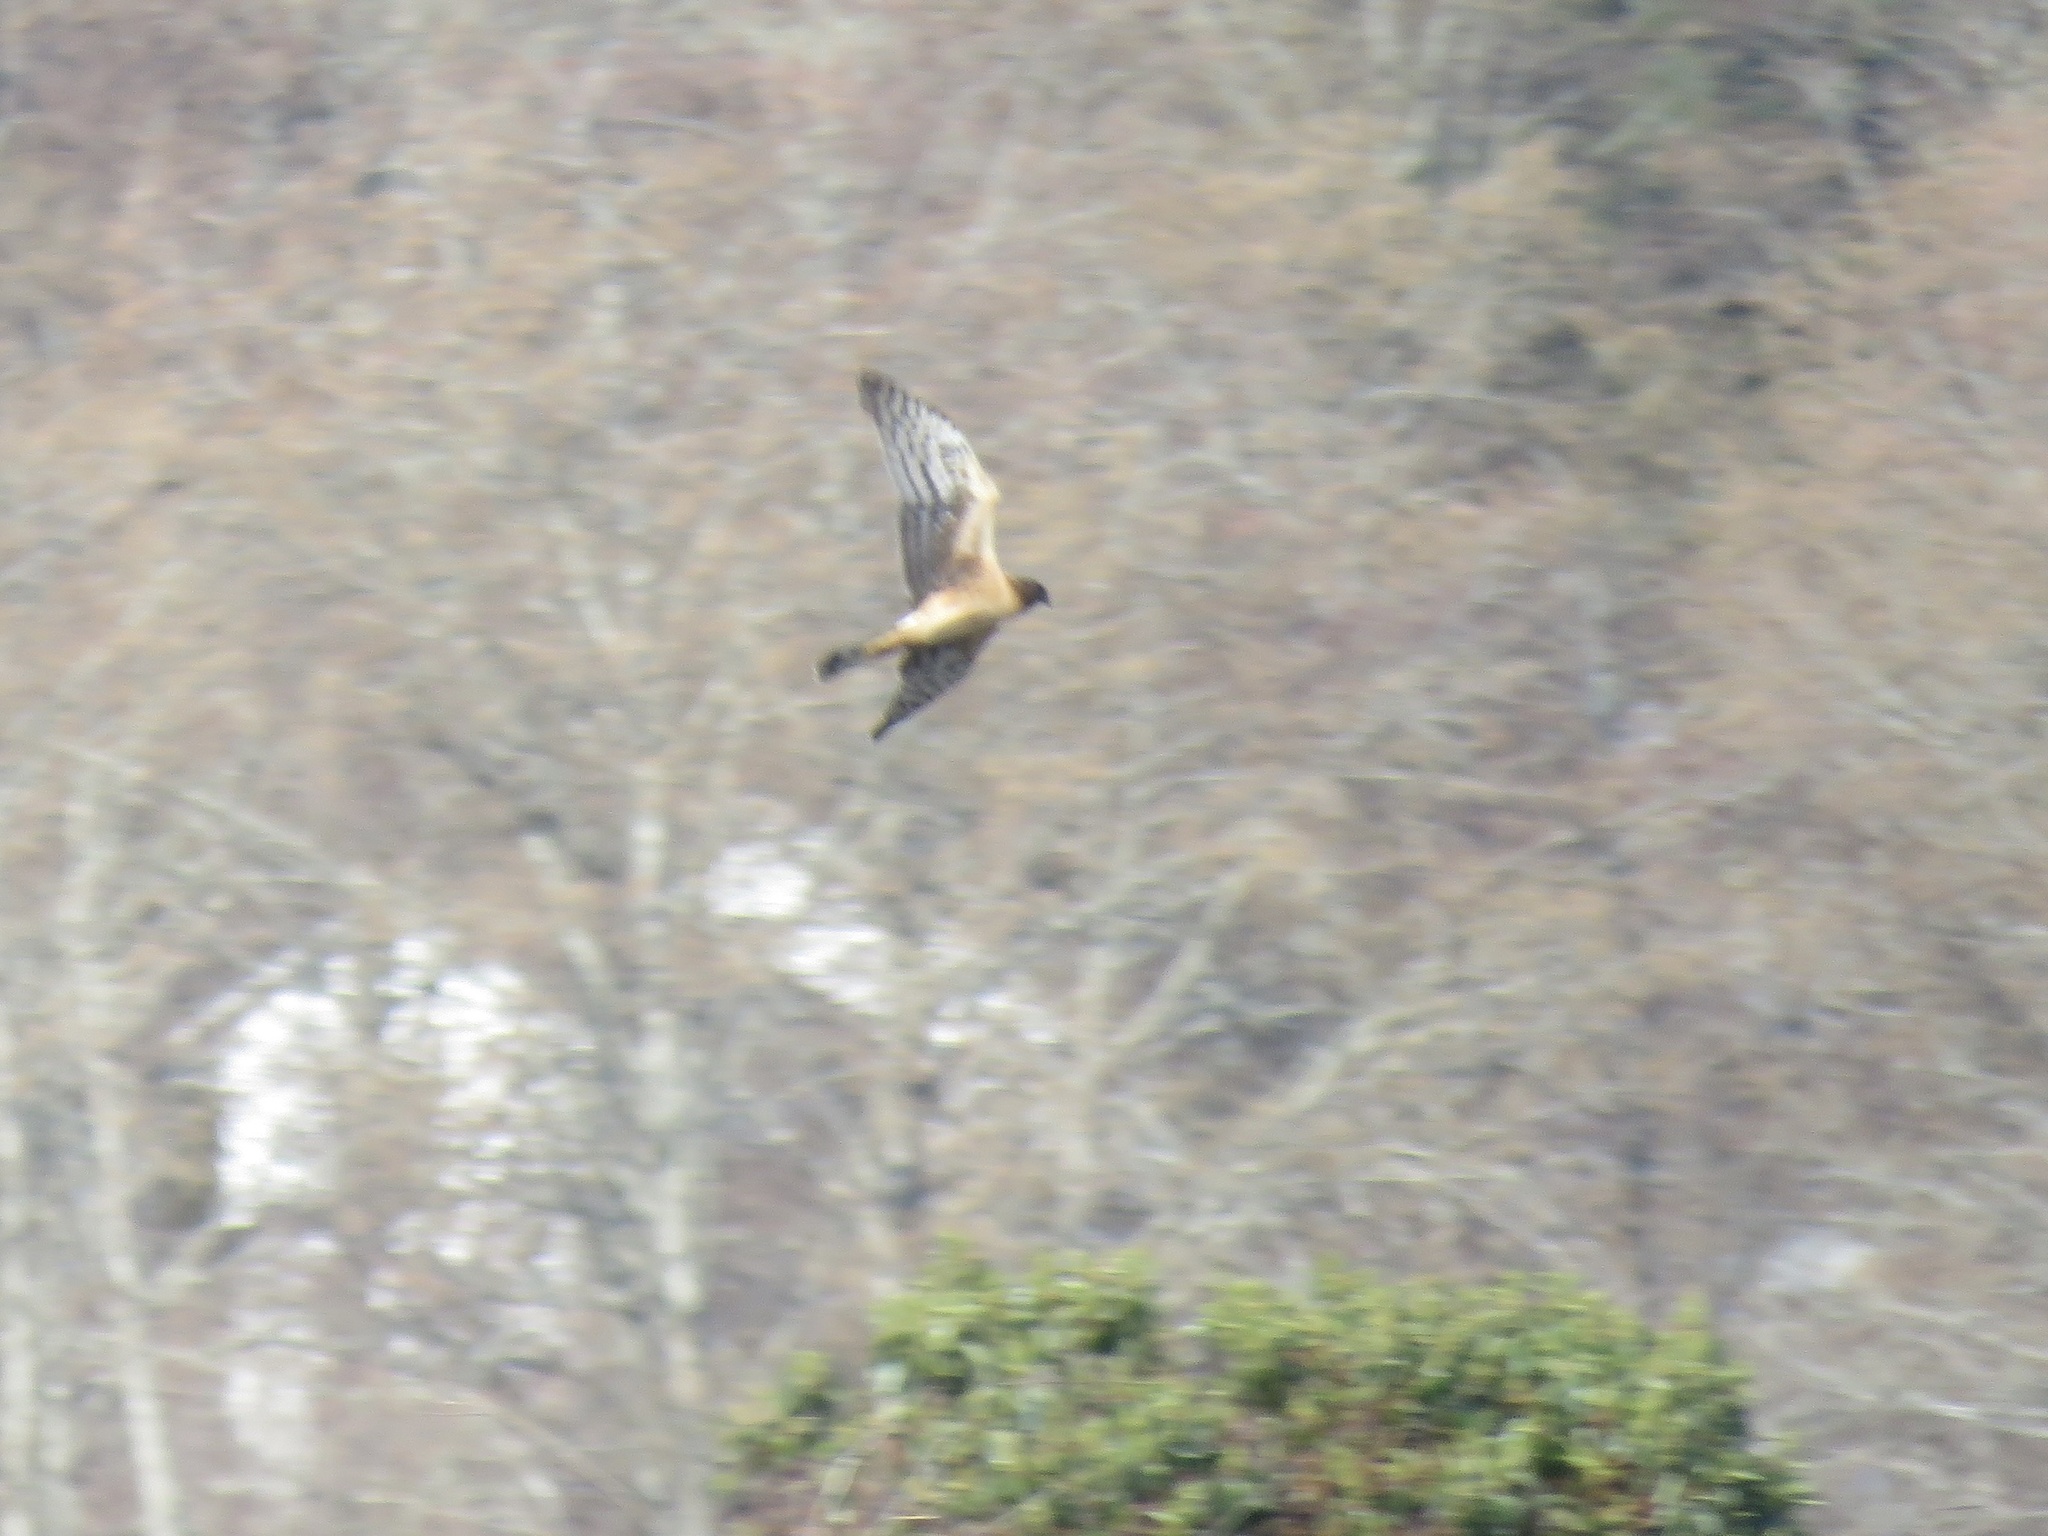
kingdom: Animalia
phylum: Chordata
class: Aves
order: Accipitriformes
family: Accipitridae
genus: Circus
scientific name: Circus cyaneus
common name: Hen harrier
